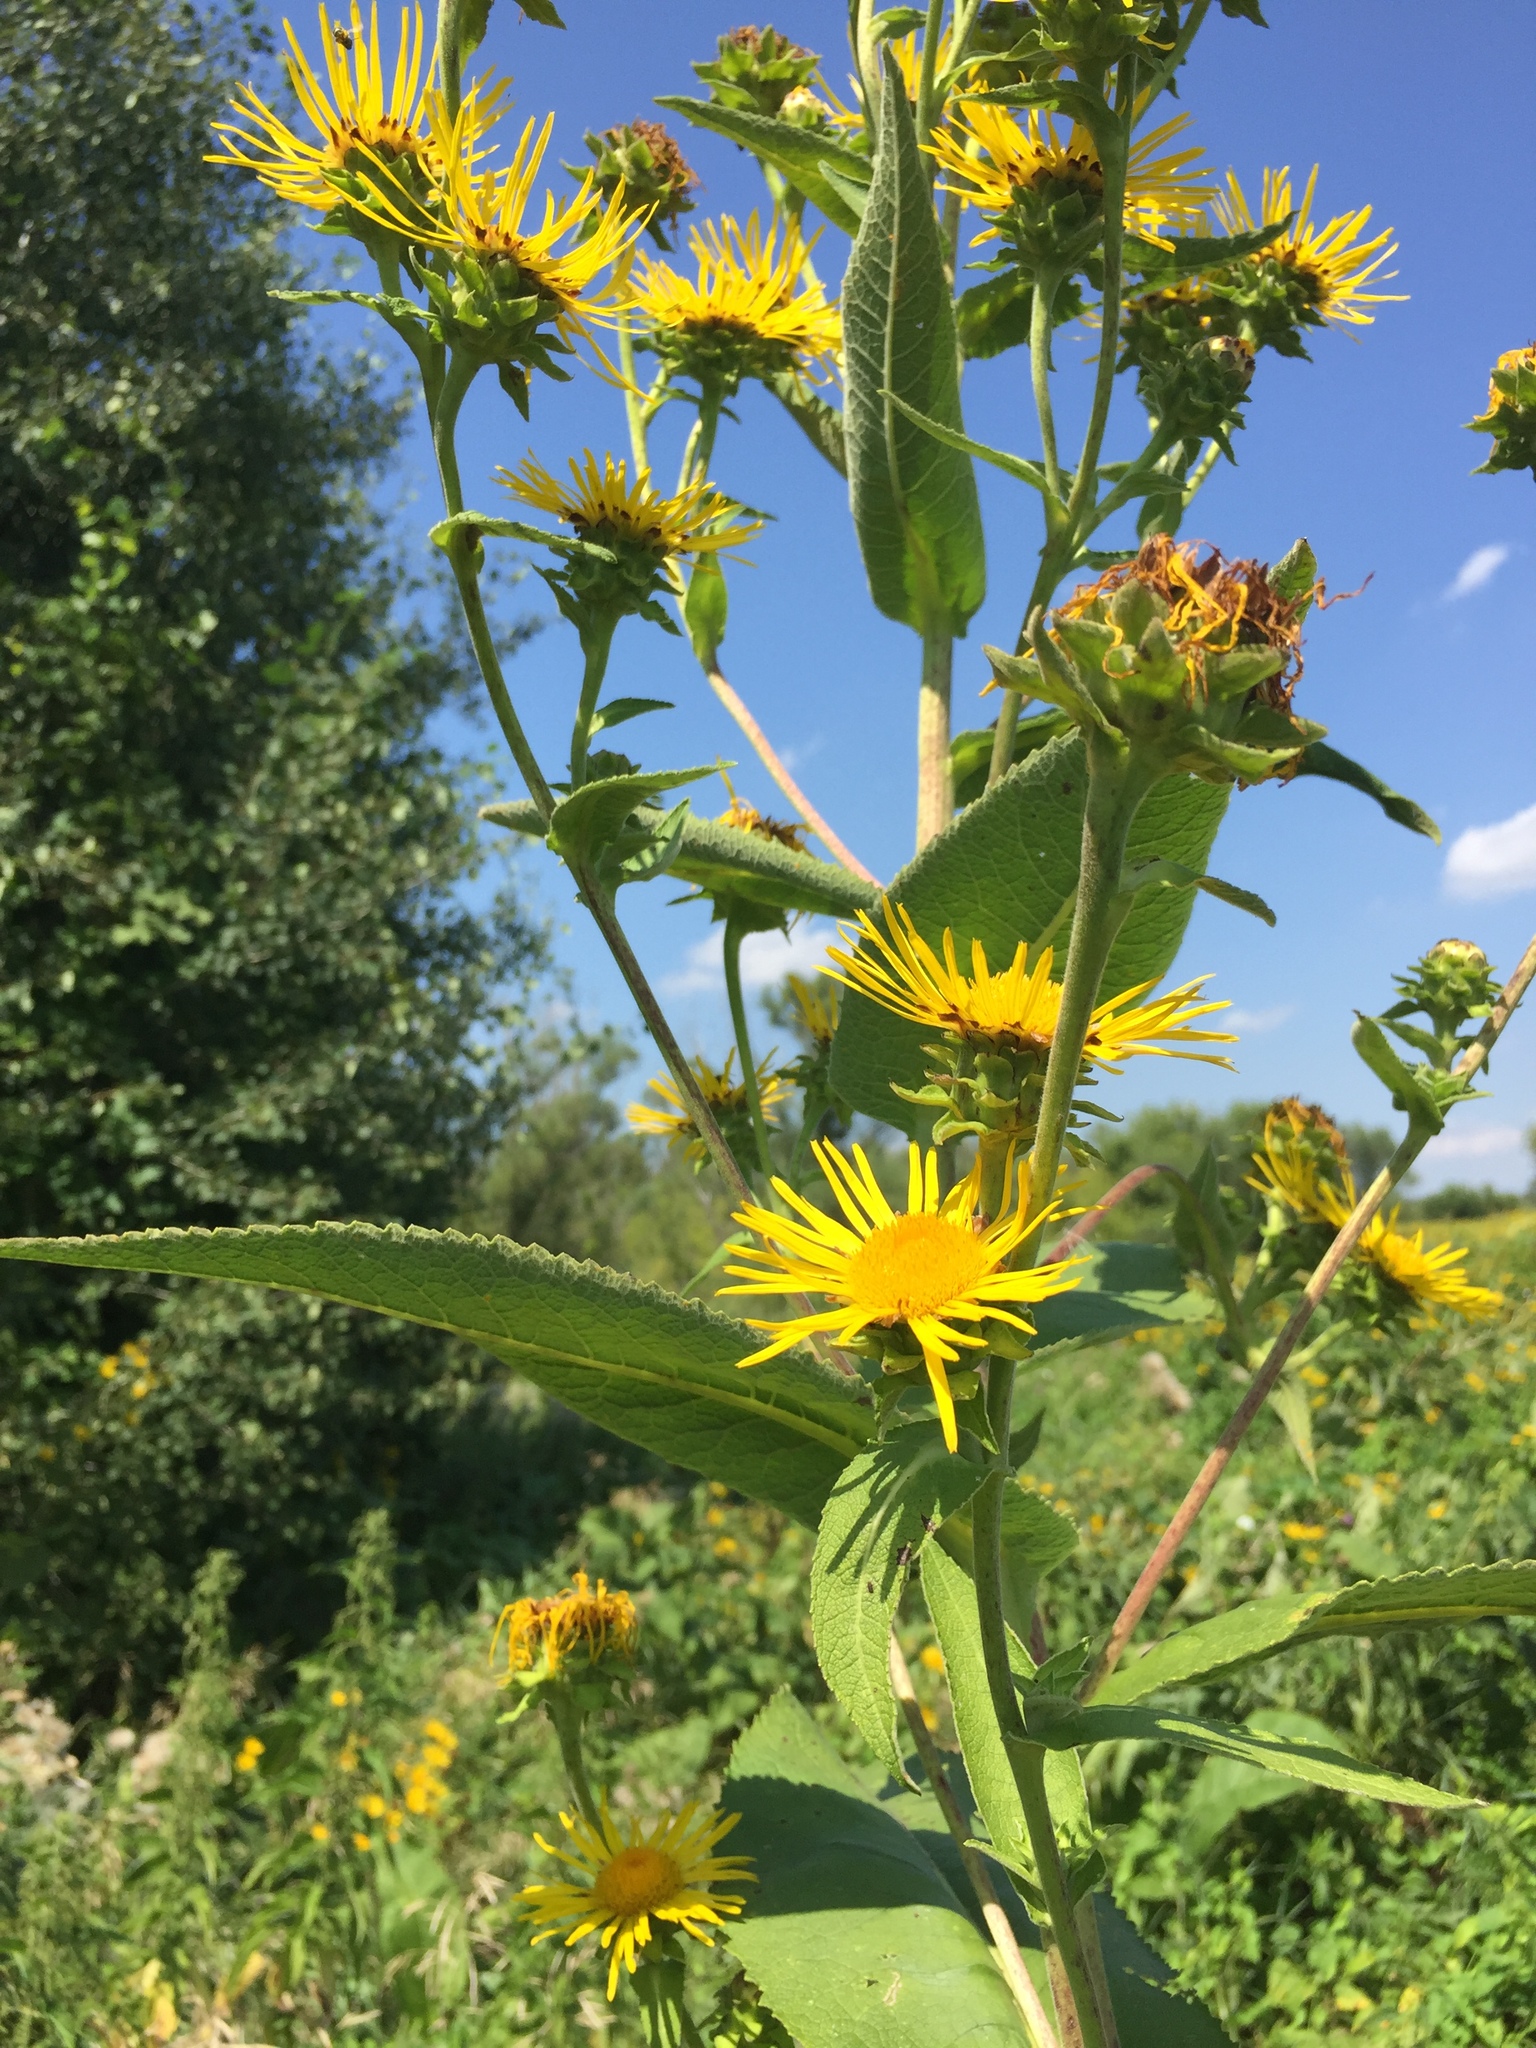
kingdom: Plantae
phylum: Tracheophyta
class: Magnoliopsida
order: Asterales
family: Asteraceae
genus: Inula
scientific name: Inula helenium
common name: Elecampane
